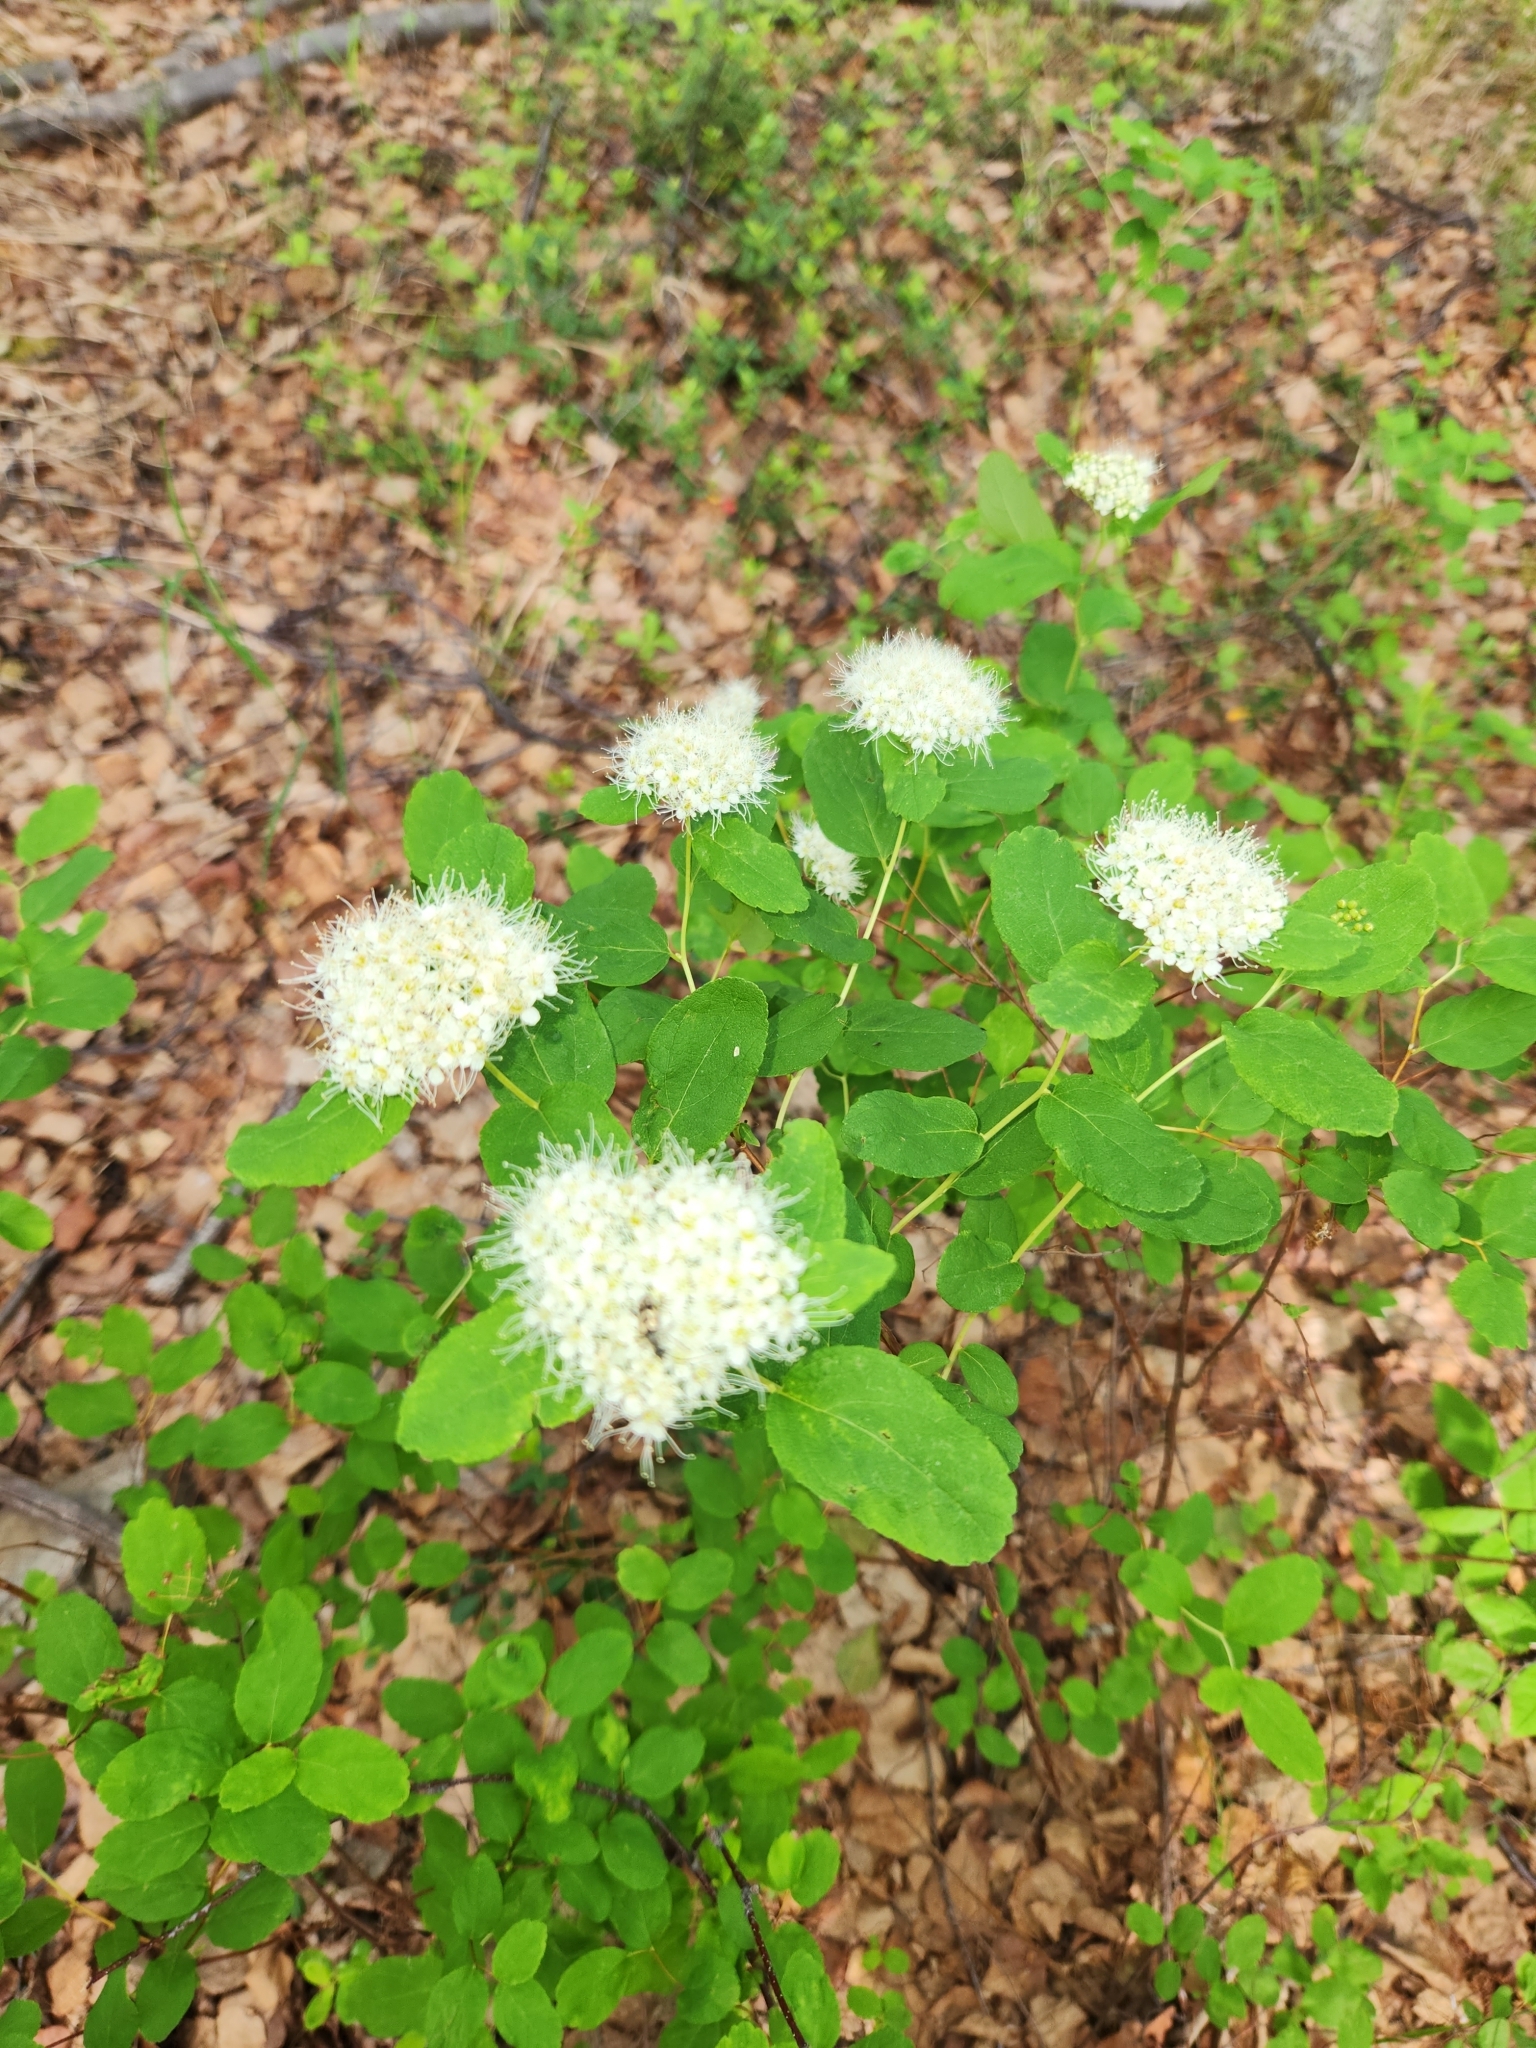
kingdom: Plantae
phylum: Tracheophyta
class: Magnoliopsida
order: Rosales
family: Rosaceae
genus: Spiraea
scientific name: Spiraea stevenii
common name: Steven's meadowsweet
